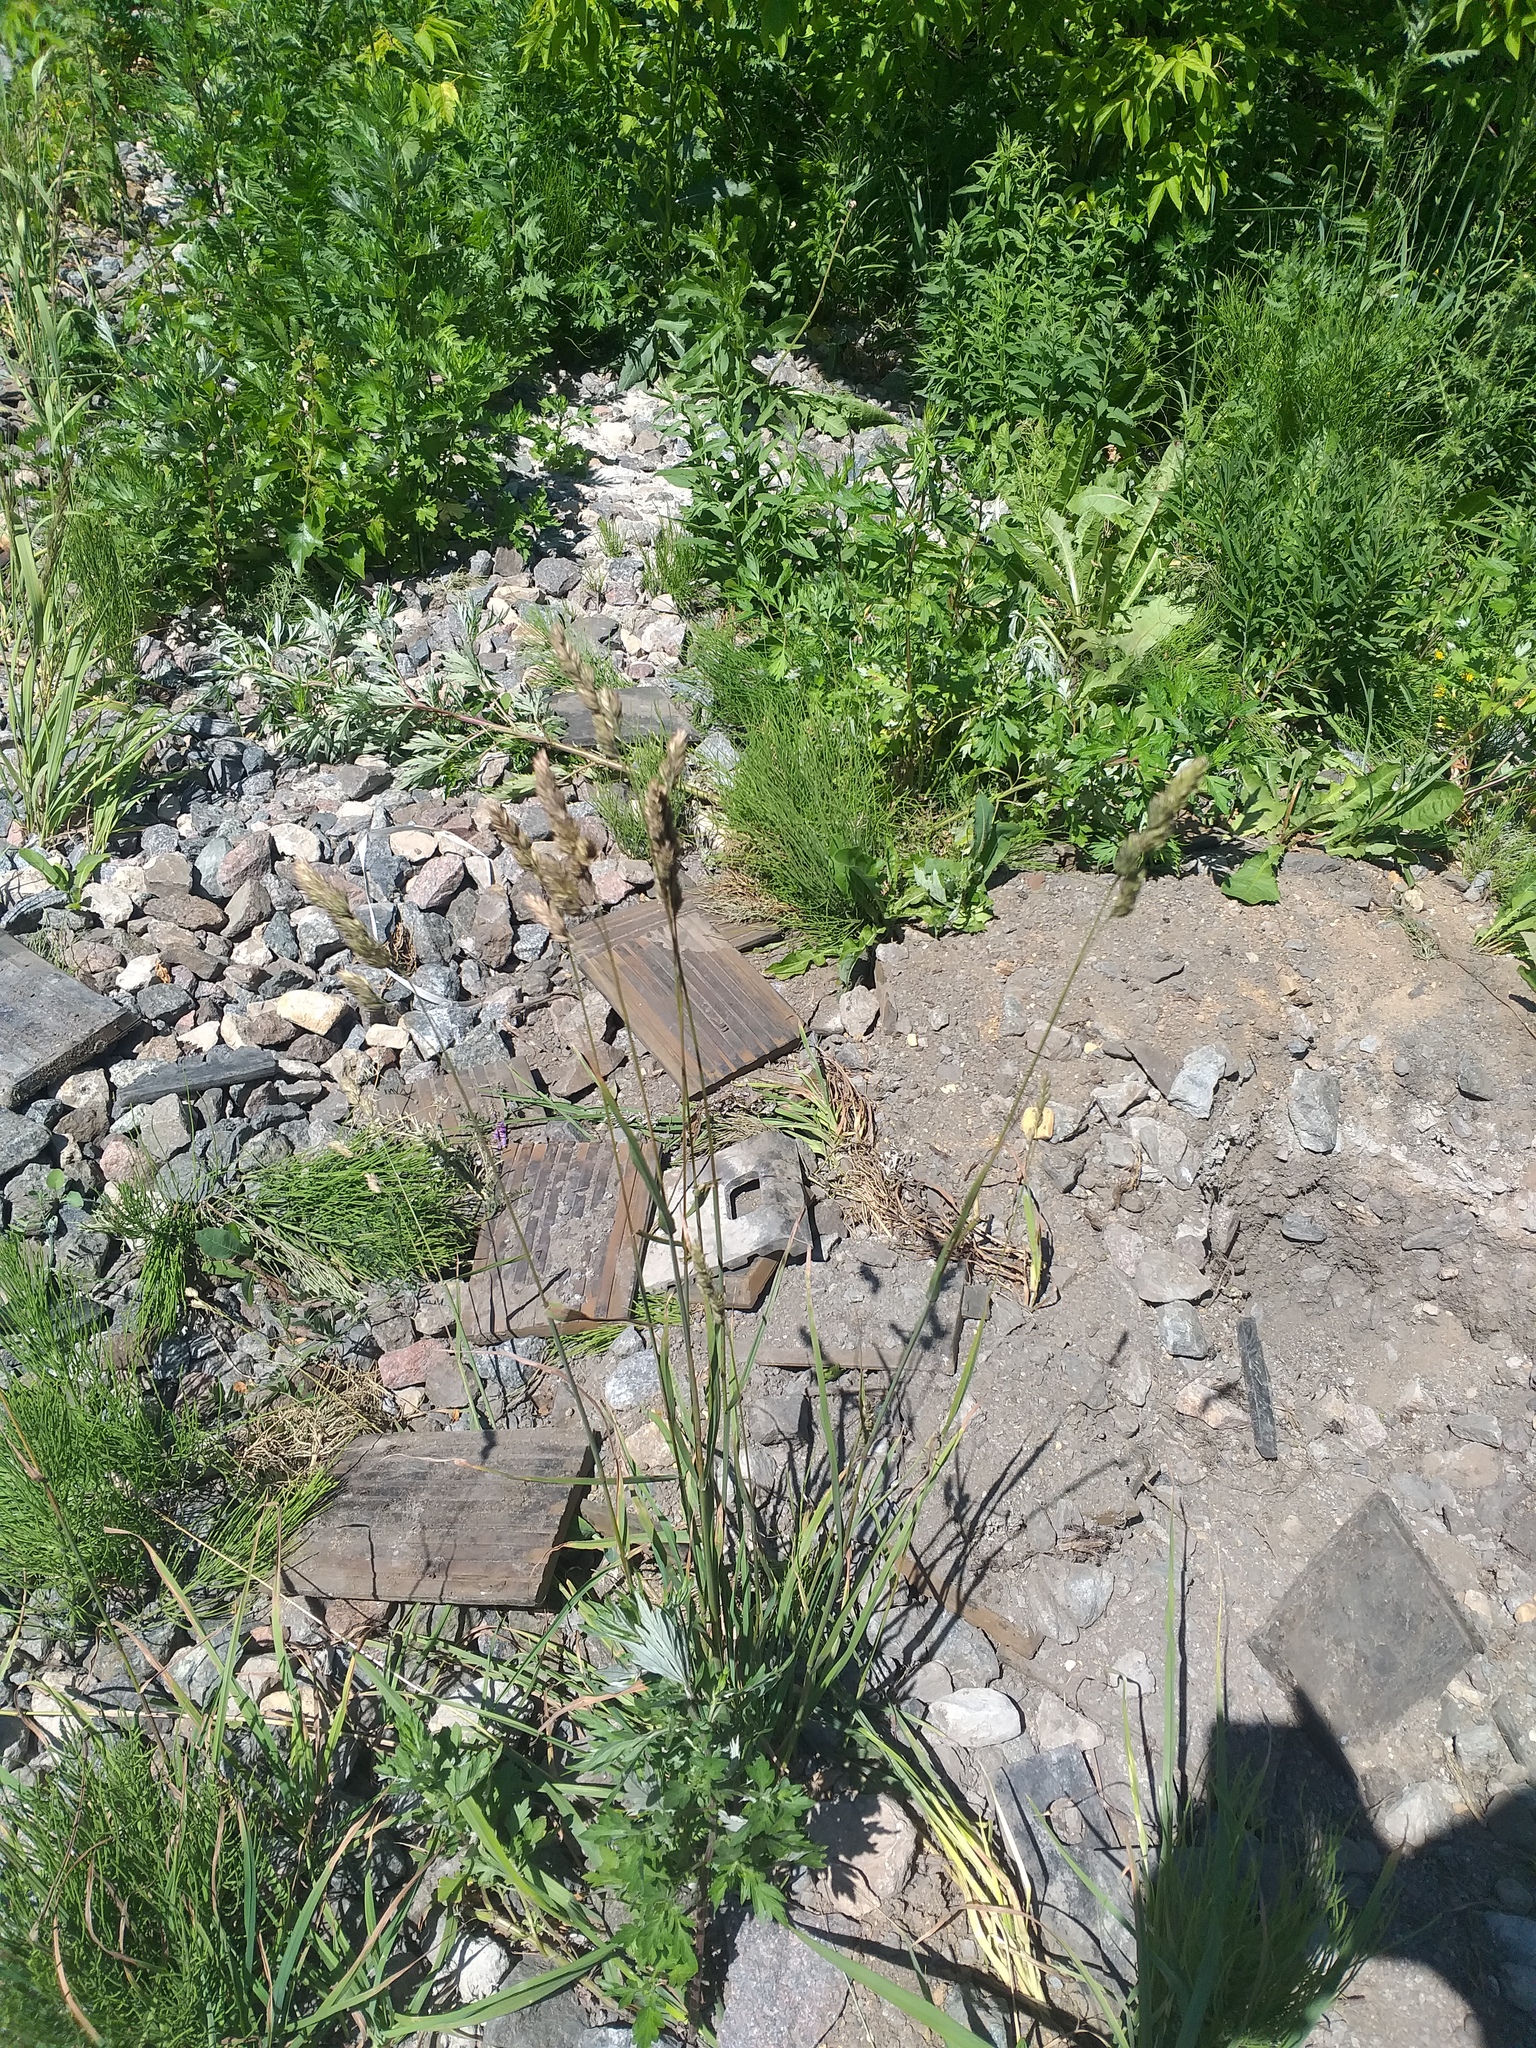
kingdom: Plantae
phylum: Tracheophyta
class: Liliopsida
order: Poales
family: Poaceae
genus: Dactylis
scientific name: Dactylis glomerata
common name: Orchardgrass
